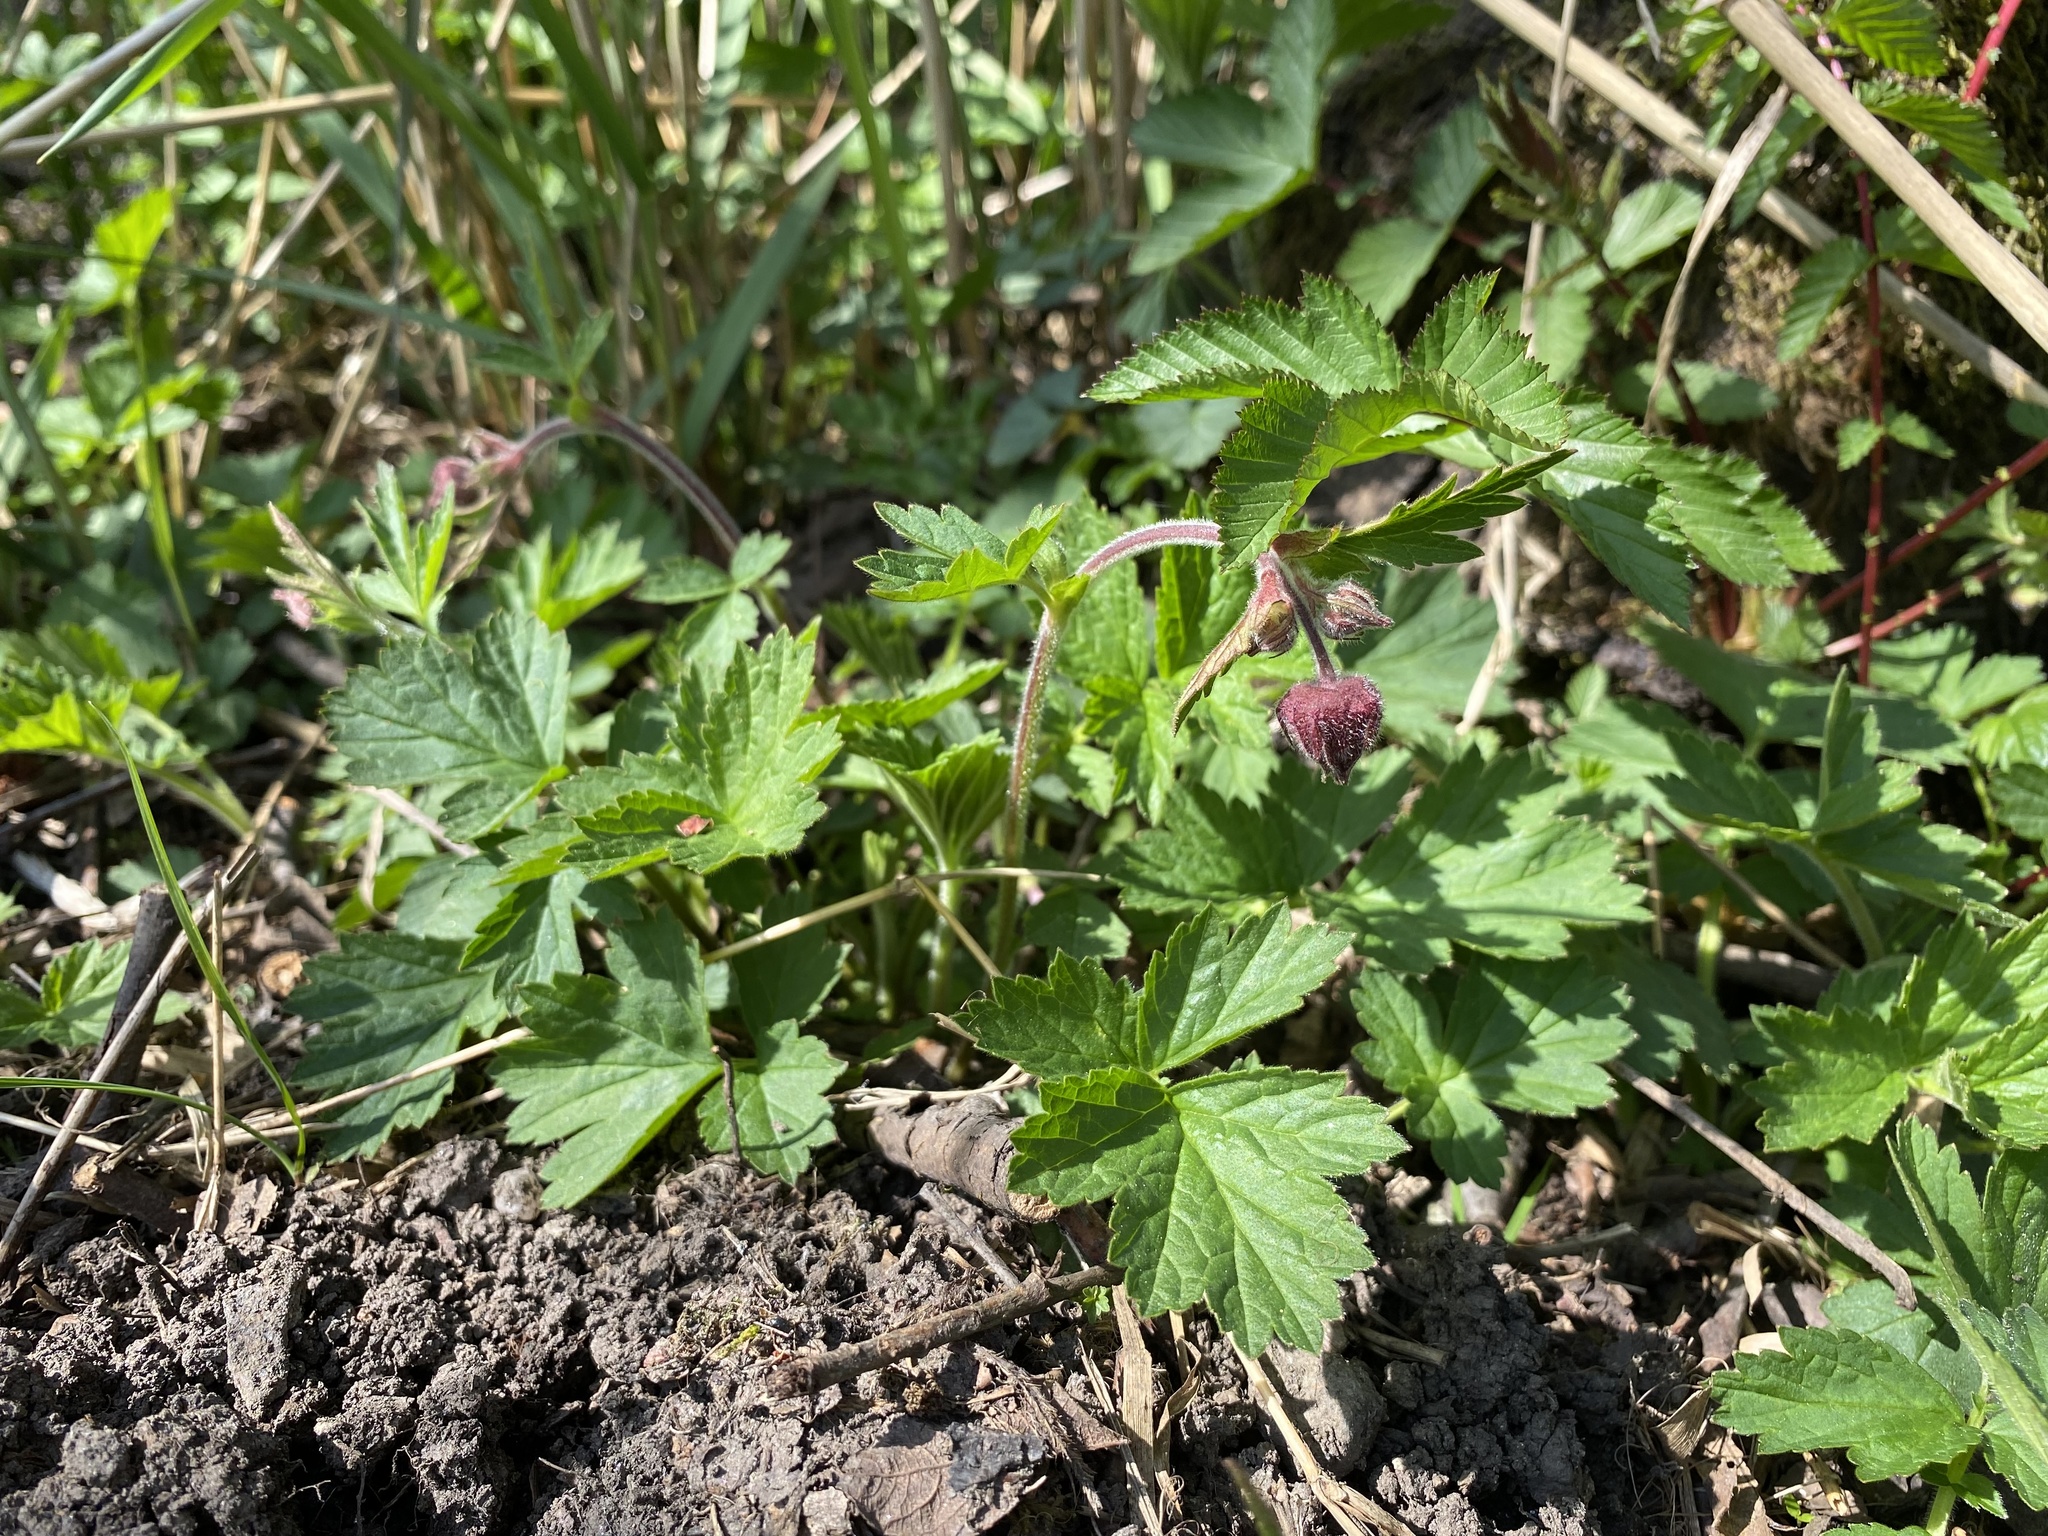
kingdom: Plantae
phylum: Tracheophyta
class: Magnoliopsida
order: Rosales
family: Rosaceae
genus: Geum
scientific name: Geum rivale
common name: Water avens
